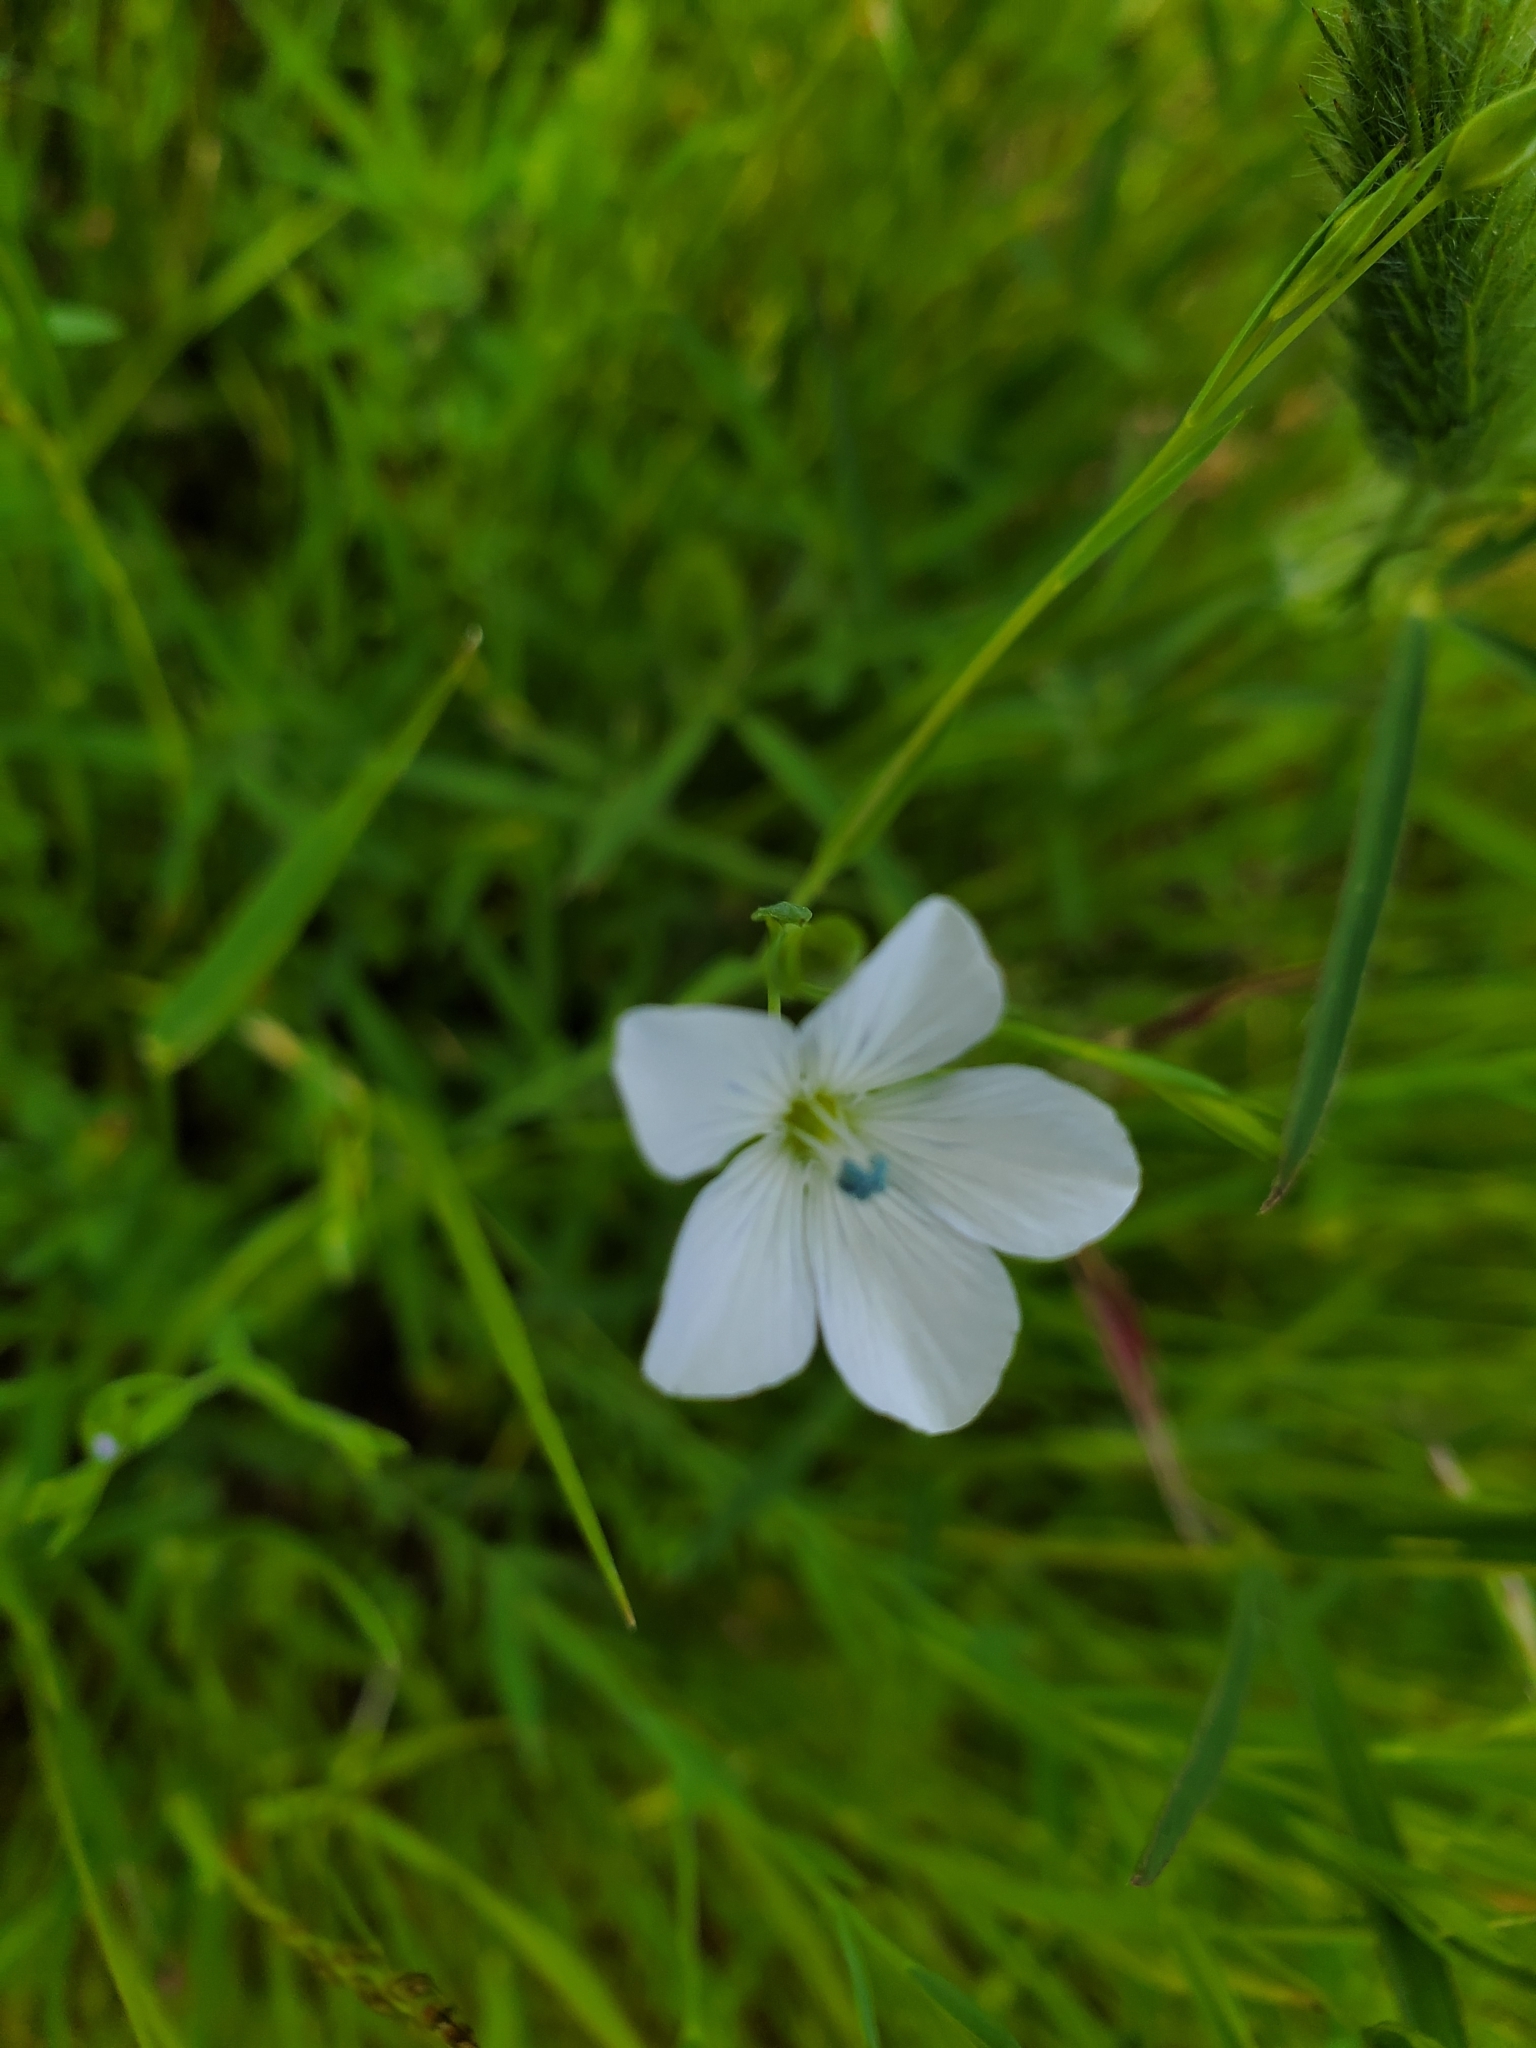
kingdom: Plantae
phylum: Tracheophyta
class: Magnoliopsida
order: Malpighiales
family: Linaceae
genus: Linum
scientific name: Linum bienne
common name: Pale flax
